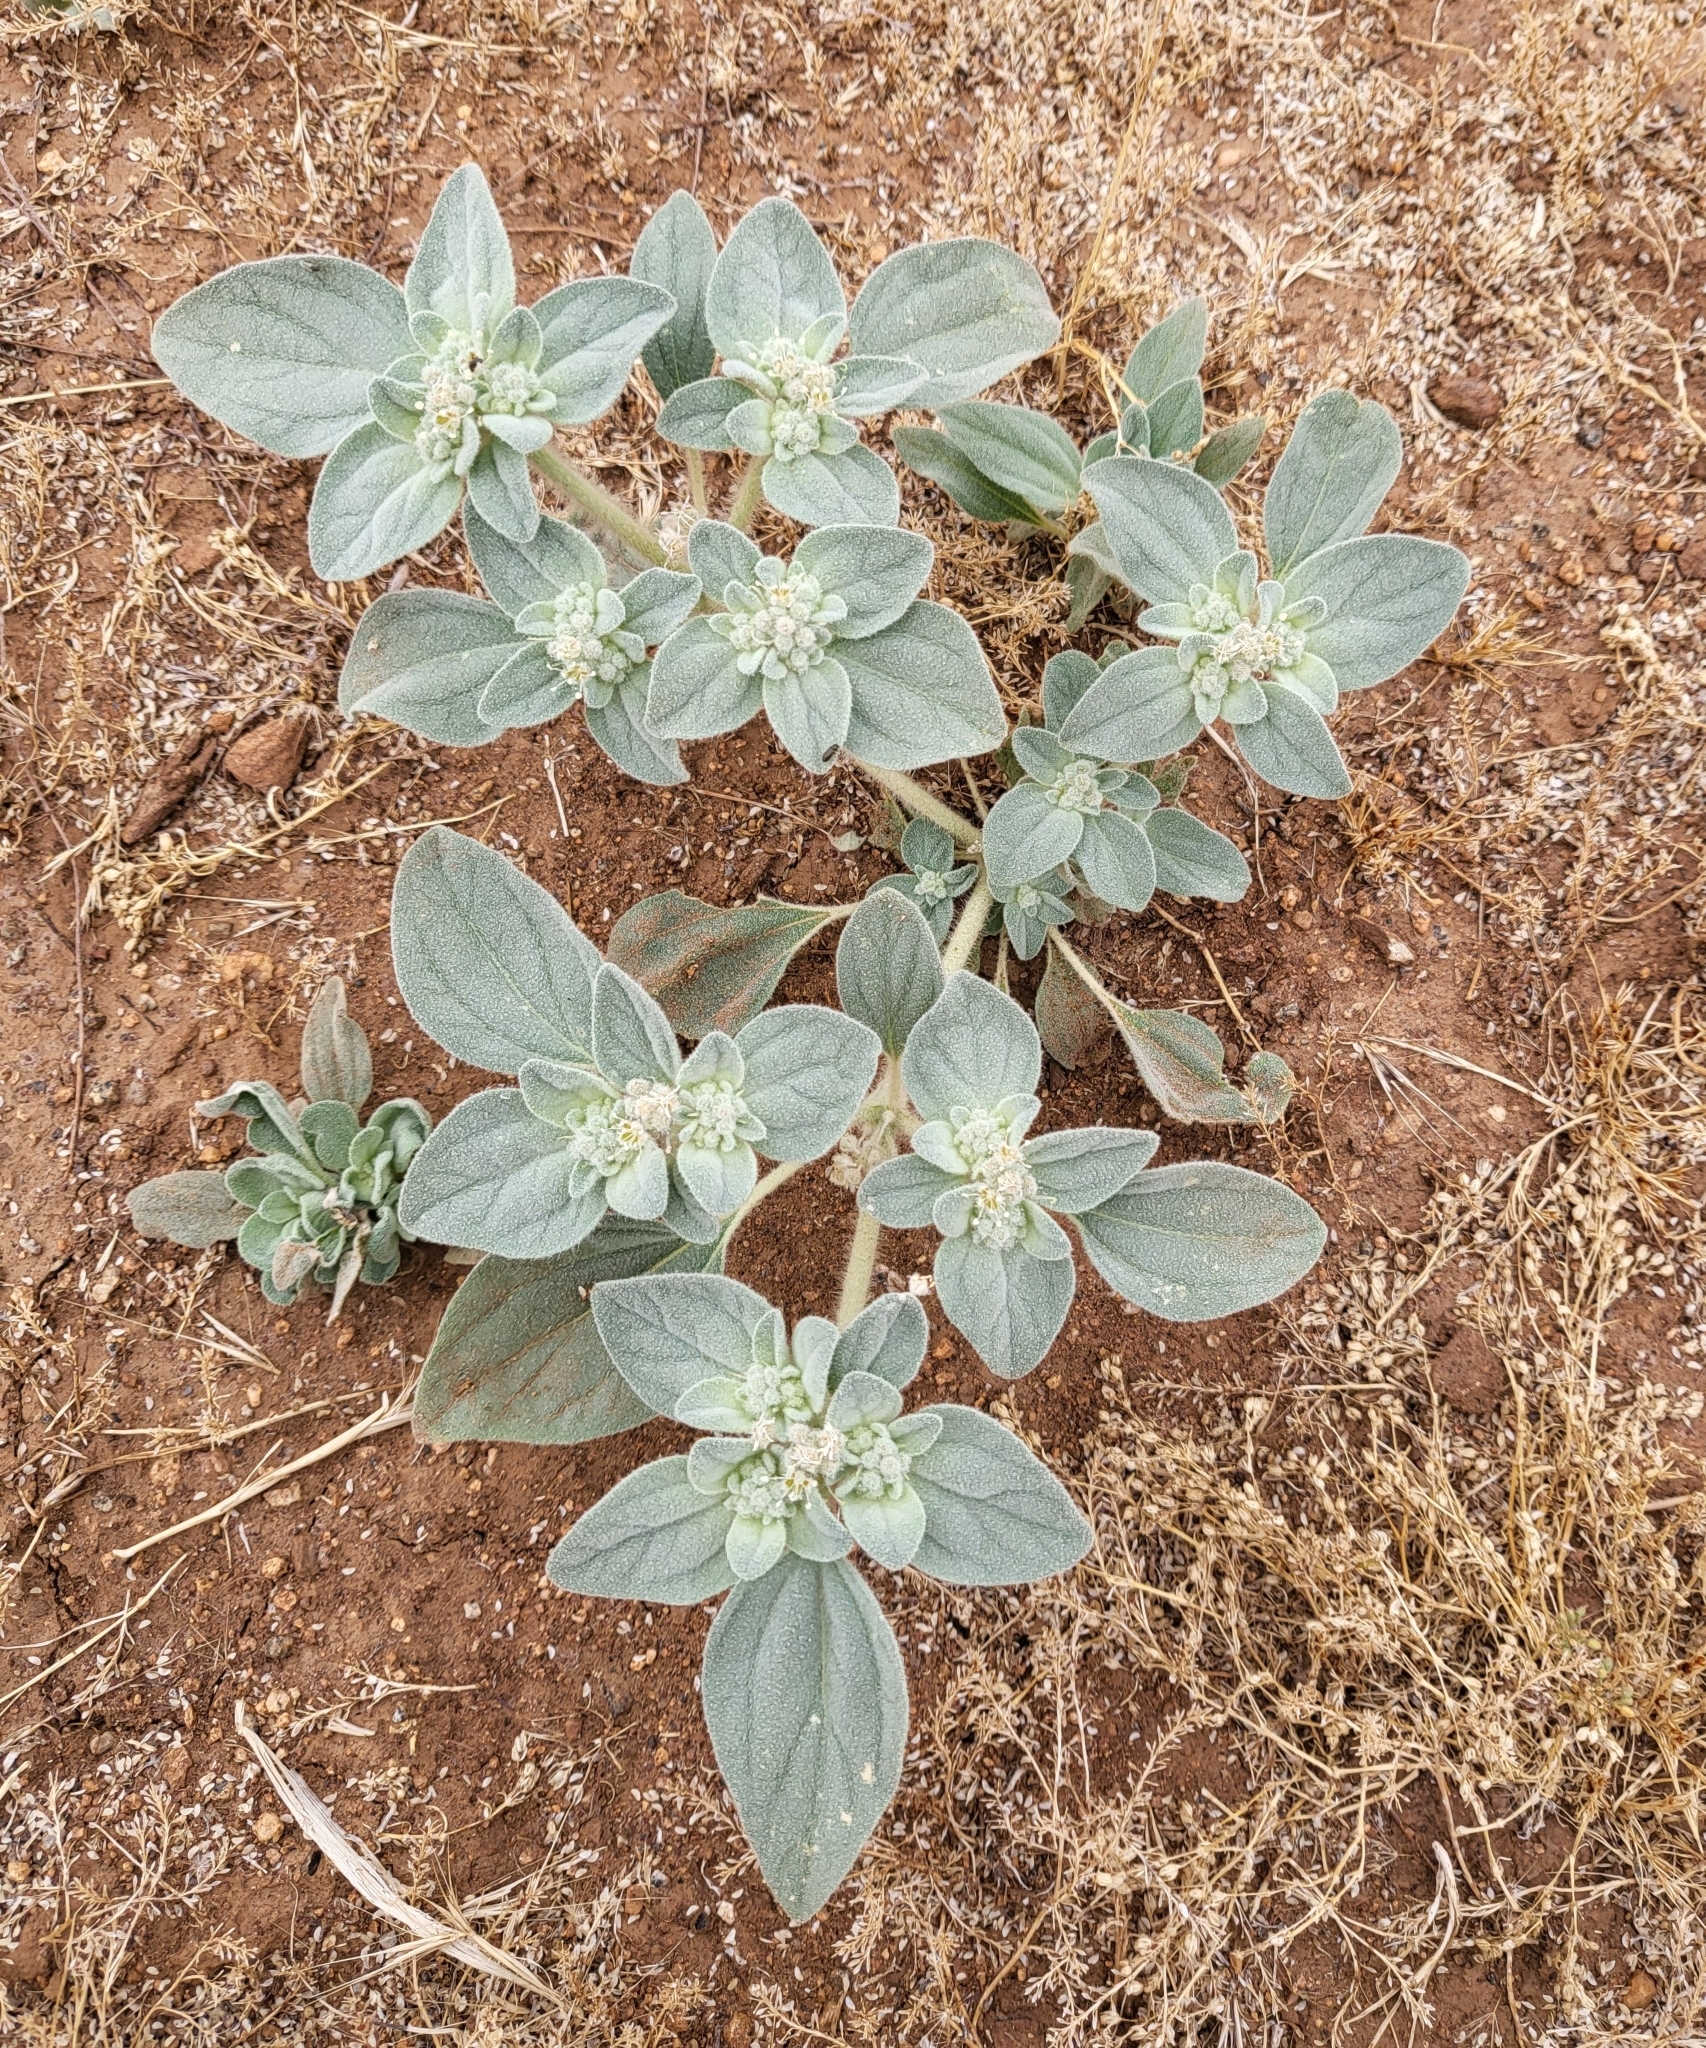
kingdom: Plantae
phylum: Tracheophyta
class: Magnoliopsida
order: Malpighiales
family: Euphorbiaceae
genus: Croton
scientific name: Croton setiger
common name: Dove weed
